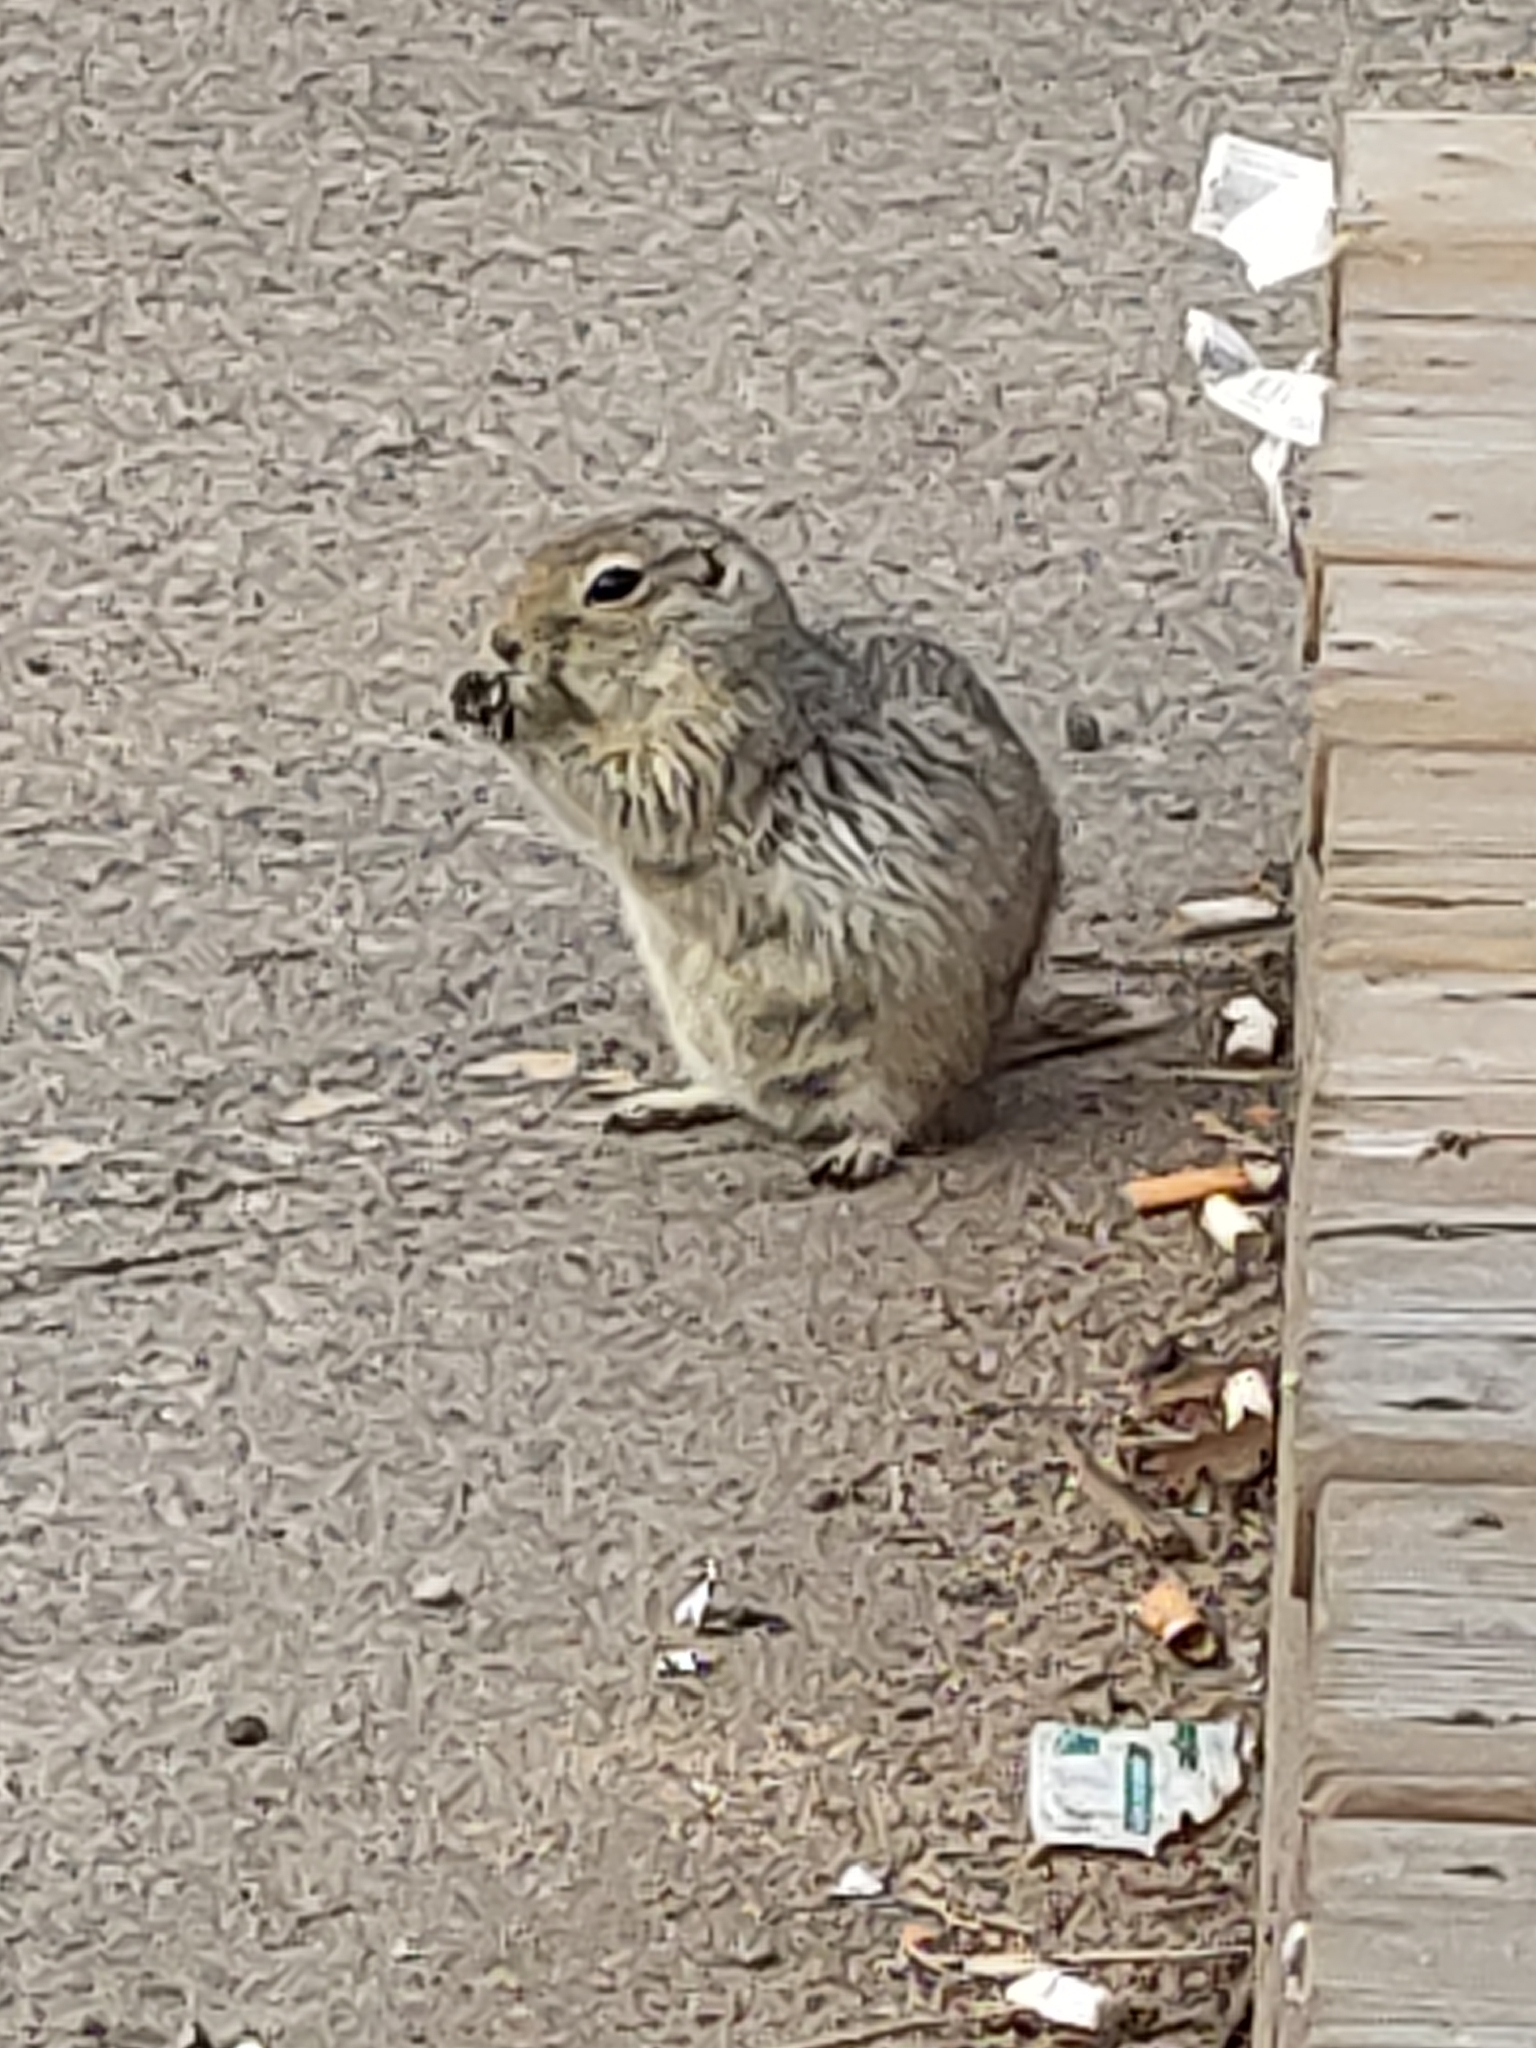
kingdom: Animalia
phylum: Chordata
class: Mammalia
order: Rodentia
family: Sciuridae
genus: Urocitellus
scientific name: Urocitellus richardsonii
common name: Richardson's ground squirrel
